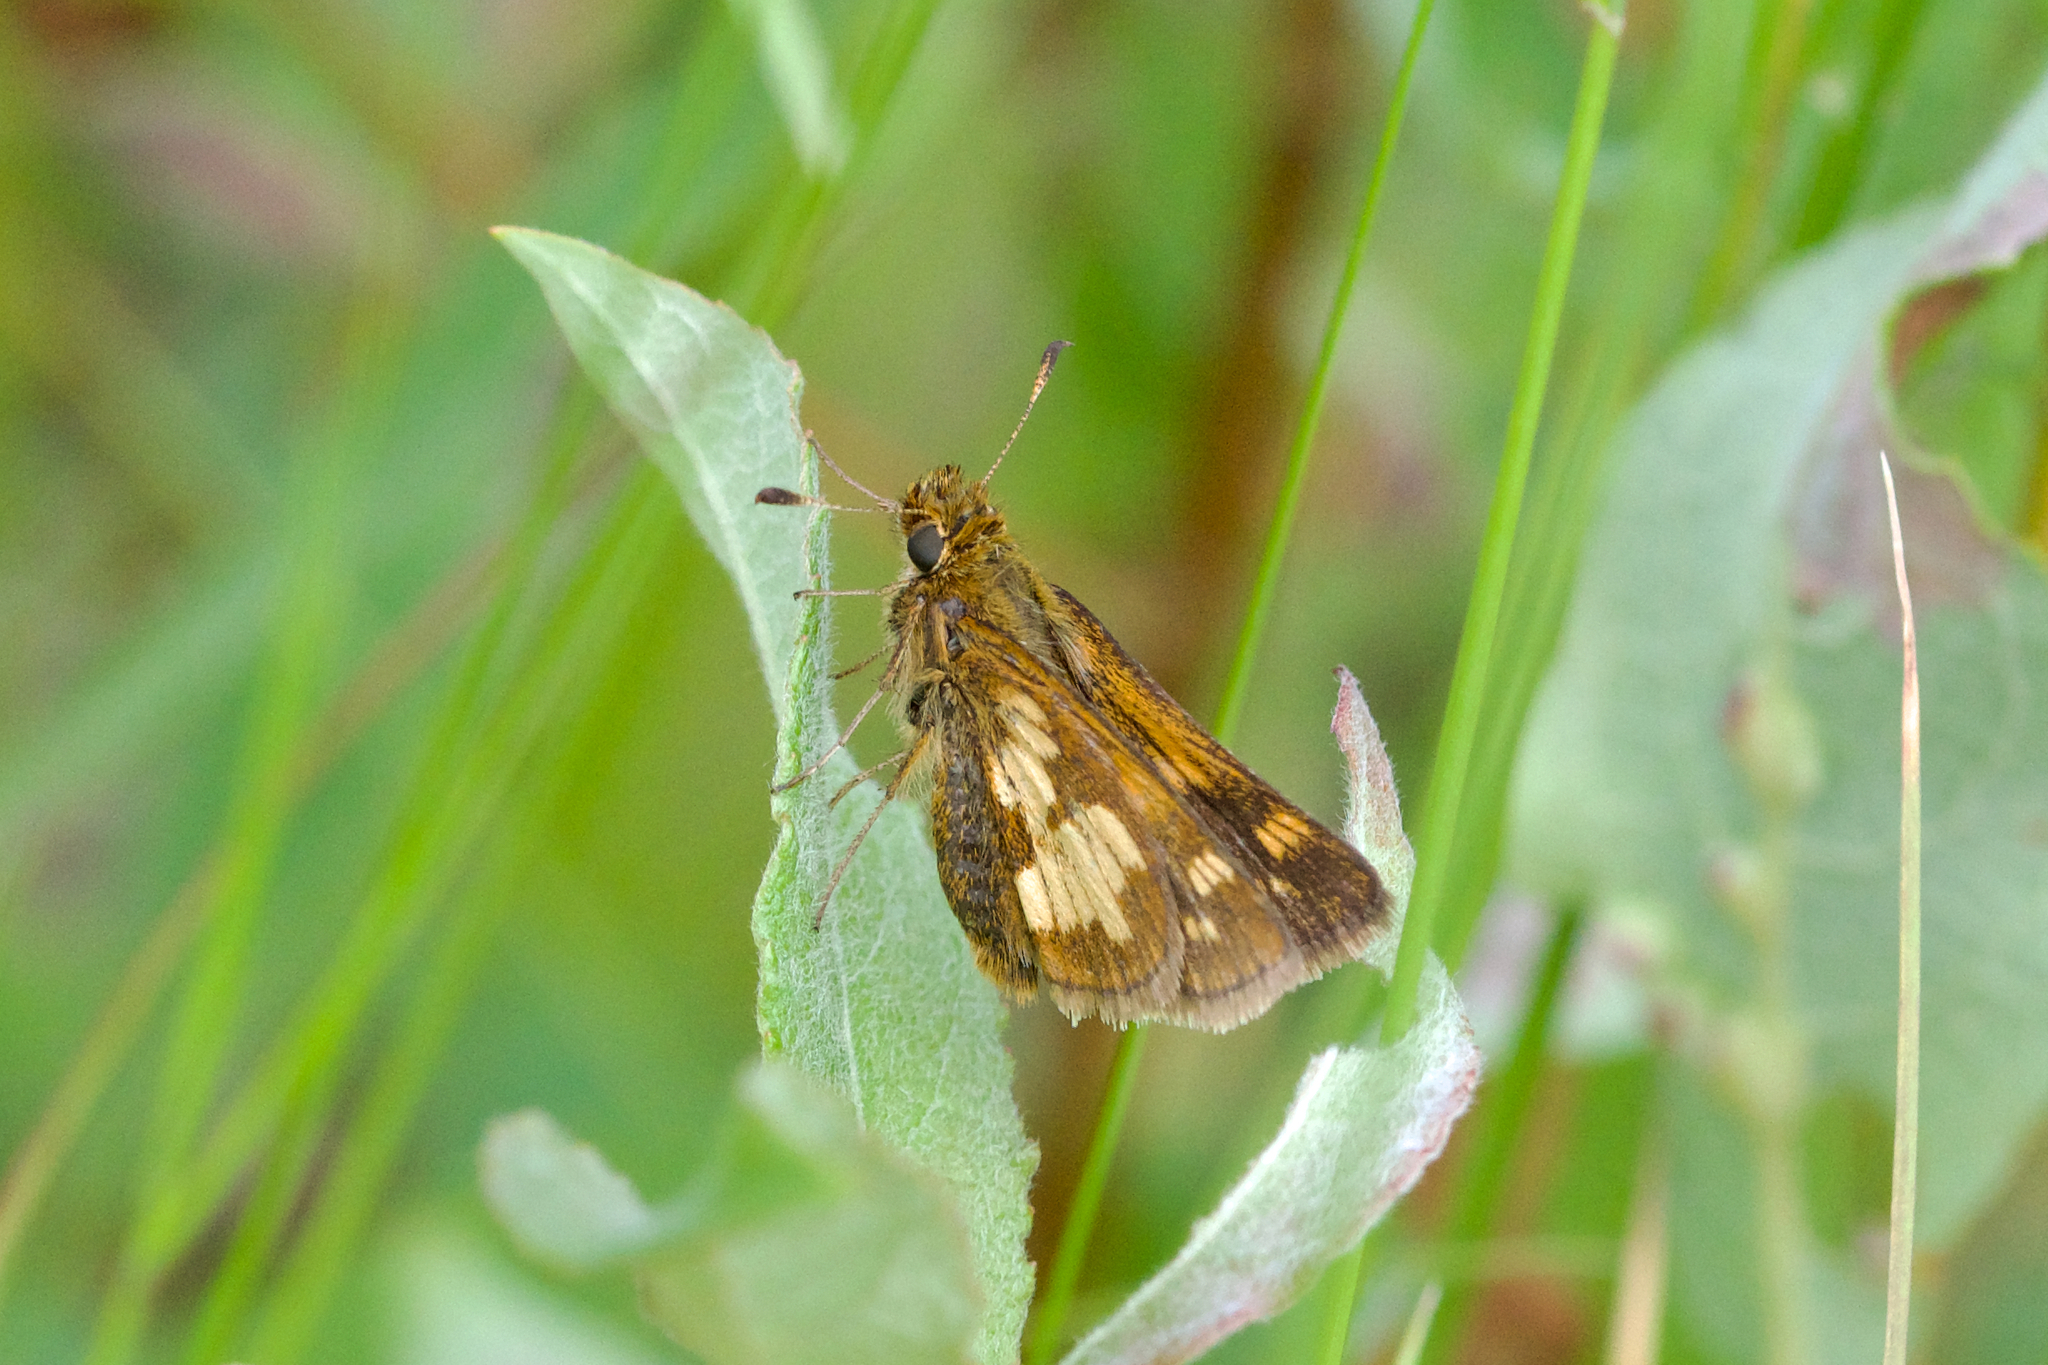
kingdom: Animalia
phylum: Arthropoda
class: Insecta
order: Lepidoptera
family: Hesperiidae
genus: Polites
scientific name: Polites coras
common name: Peck's skipper
